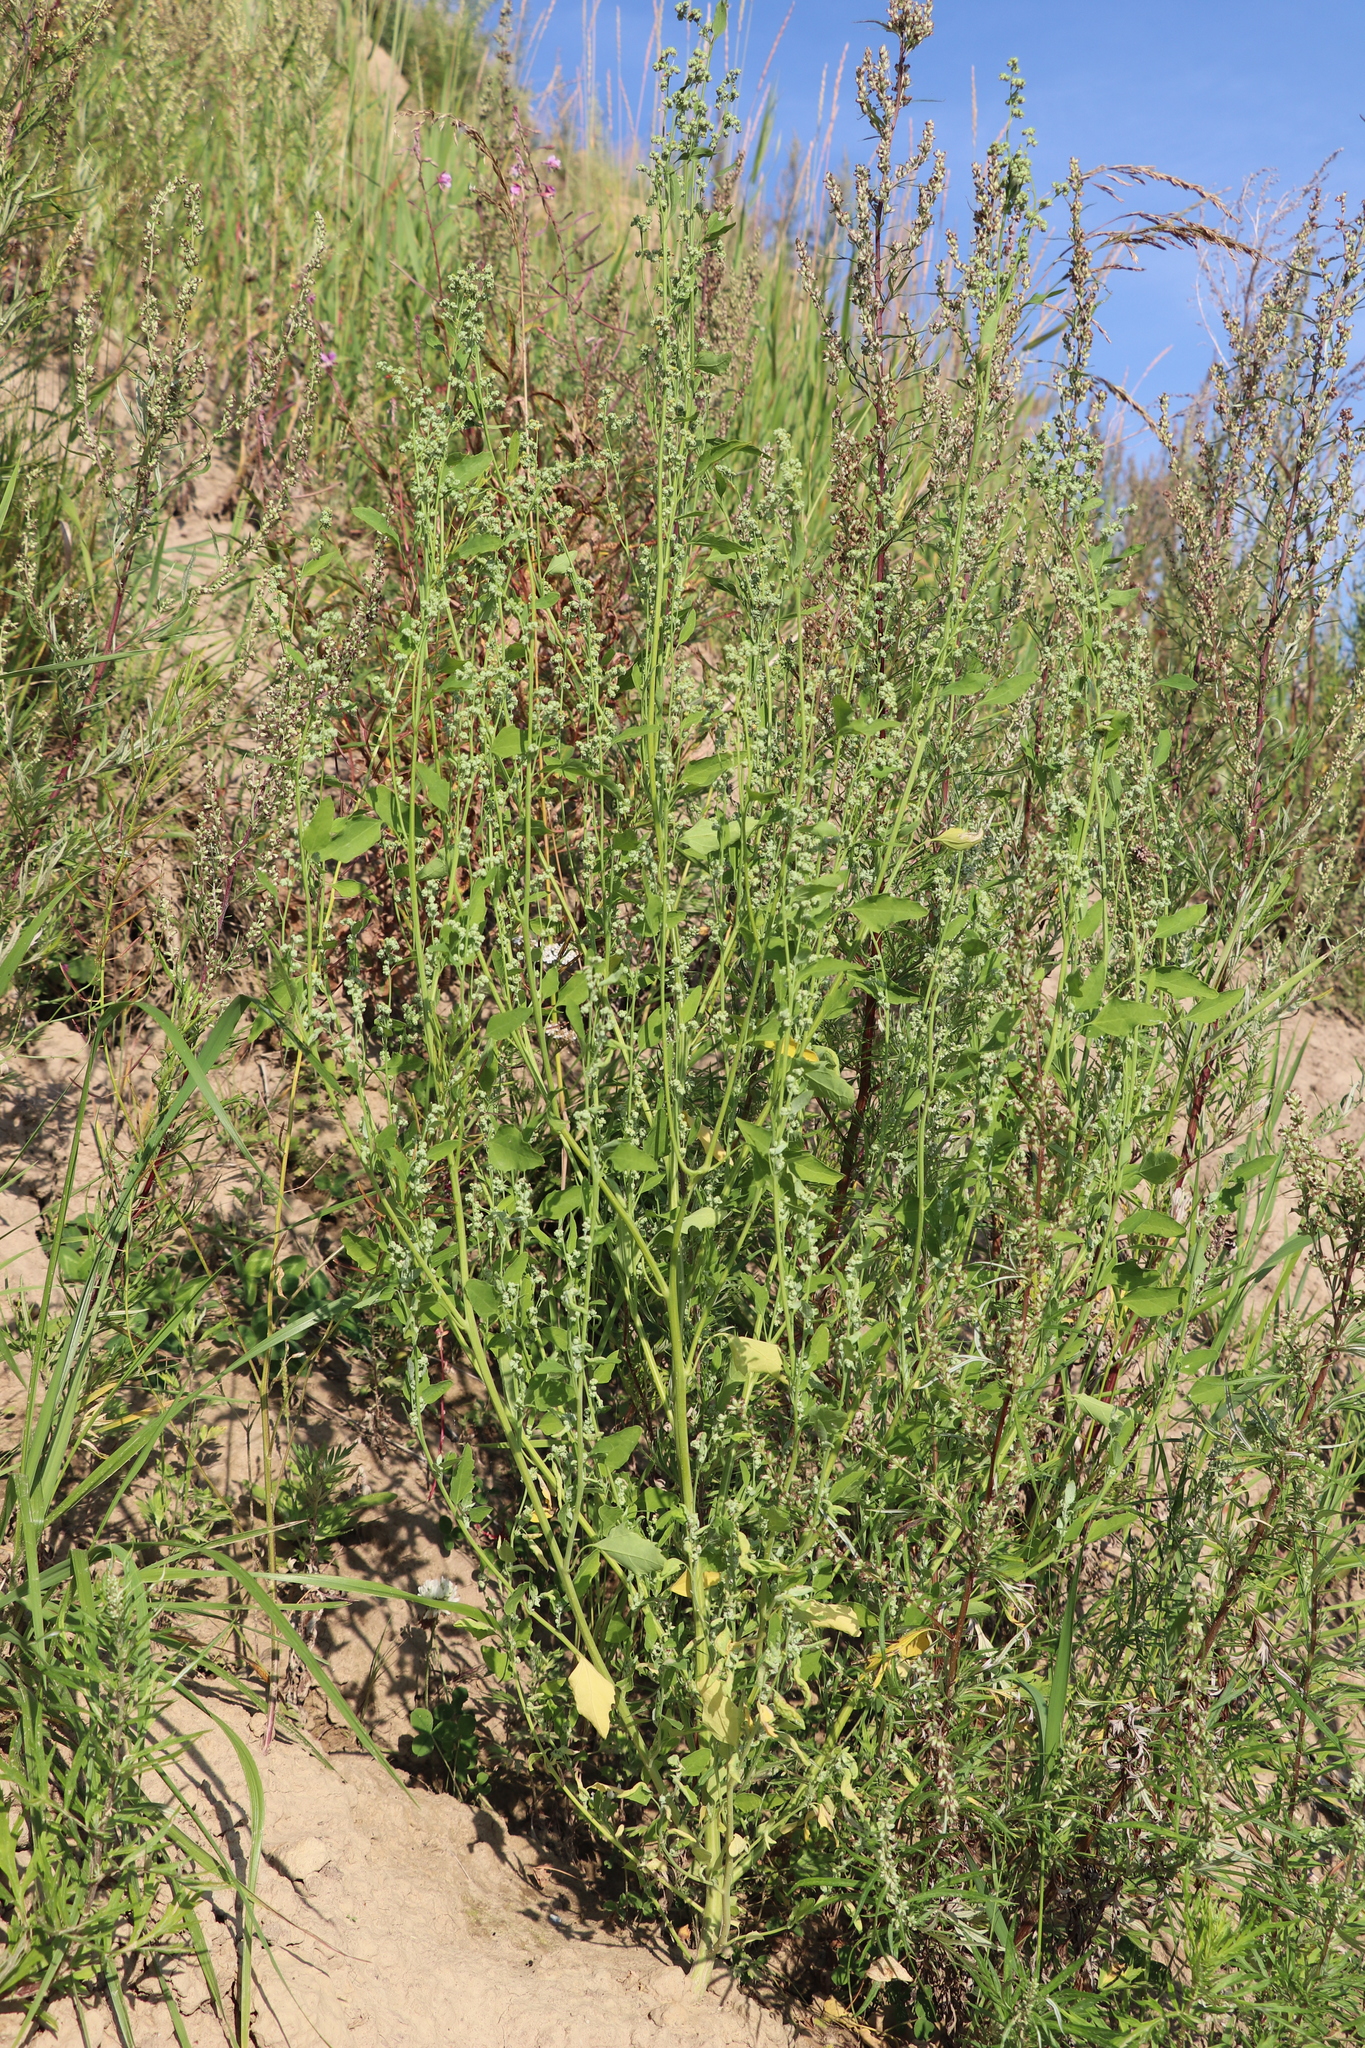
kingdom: Plantae
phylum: Tracheophyta
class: Magnoliopsida
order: Caryophyllales
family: Amaranthaceae
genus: Chenopodium
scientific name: Chenopodium album
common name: Fat-hen
